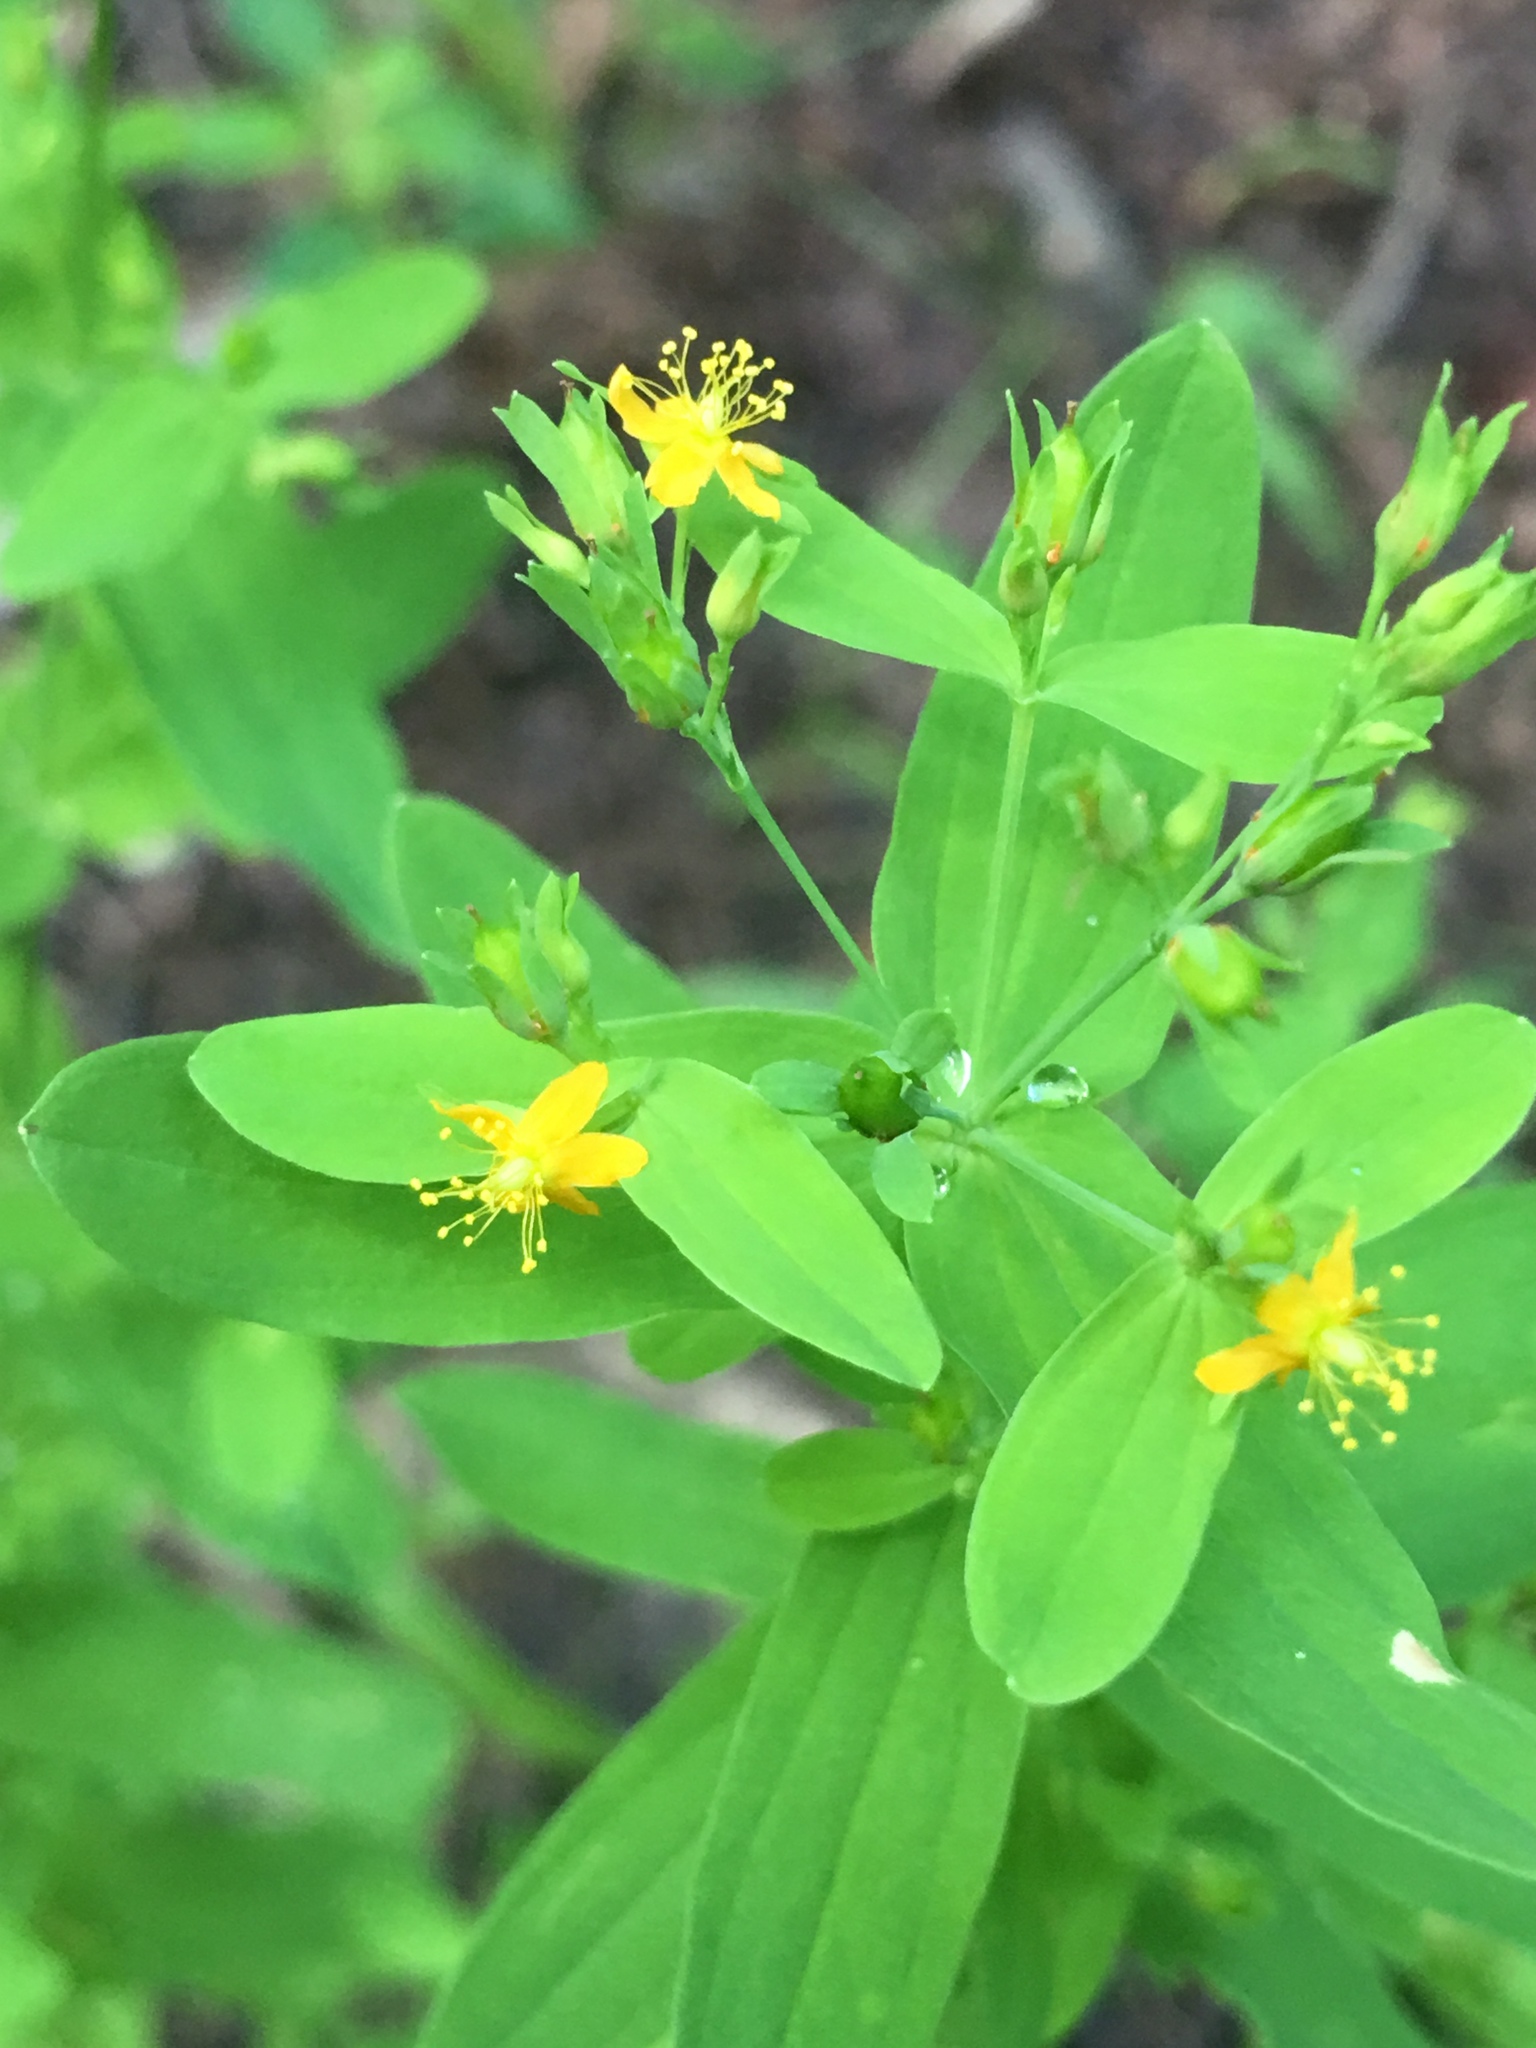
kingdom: Plantae
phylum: Tracheophyta
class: Magnoliopsida
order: Malpighiales
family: Hypericaceae
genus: Hypericum
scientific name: Hypericum mutilum
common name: Dwarf st. john's-wort
